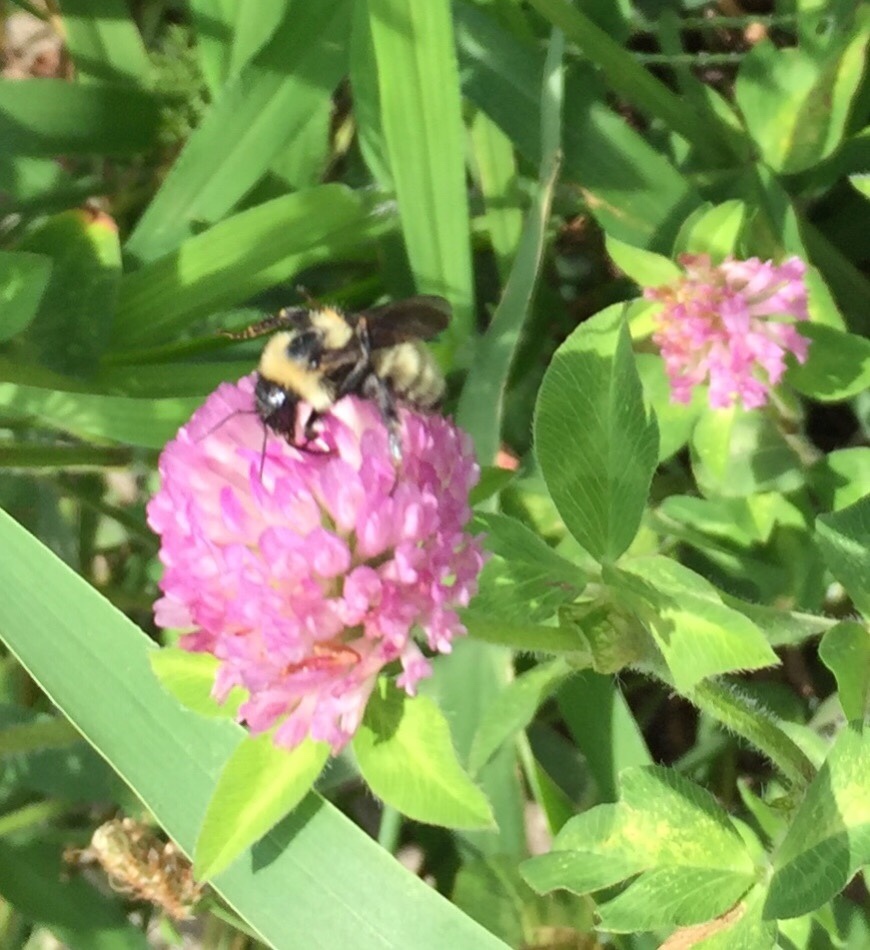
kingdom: Animalia
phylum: Arthropoda
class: Insecta
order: Hymenoptera
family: Apidae
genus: Bombus
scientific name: Bombus fervidus
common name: Yellow bumble bee
